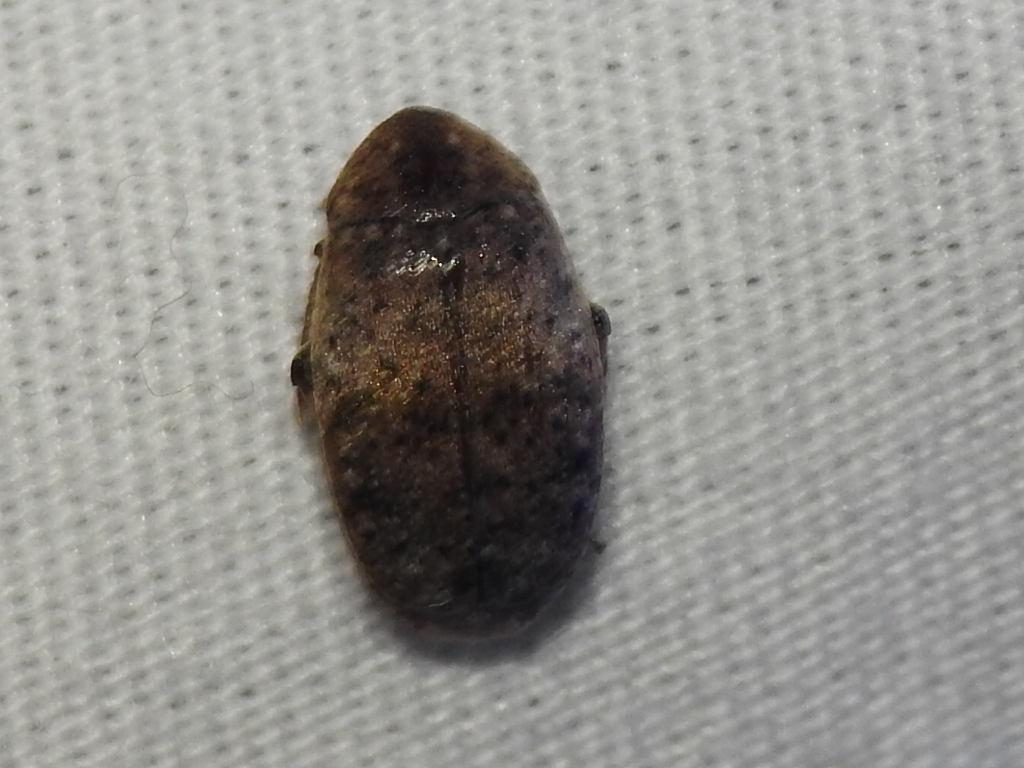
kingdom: Animalia
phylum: Arthropoda
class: Insecta
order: Coleoptera
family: Chrysomelidae
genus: Amblycerus
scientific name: Amblycerus robiniae
